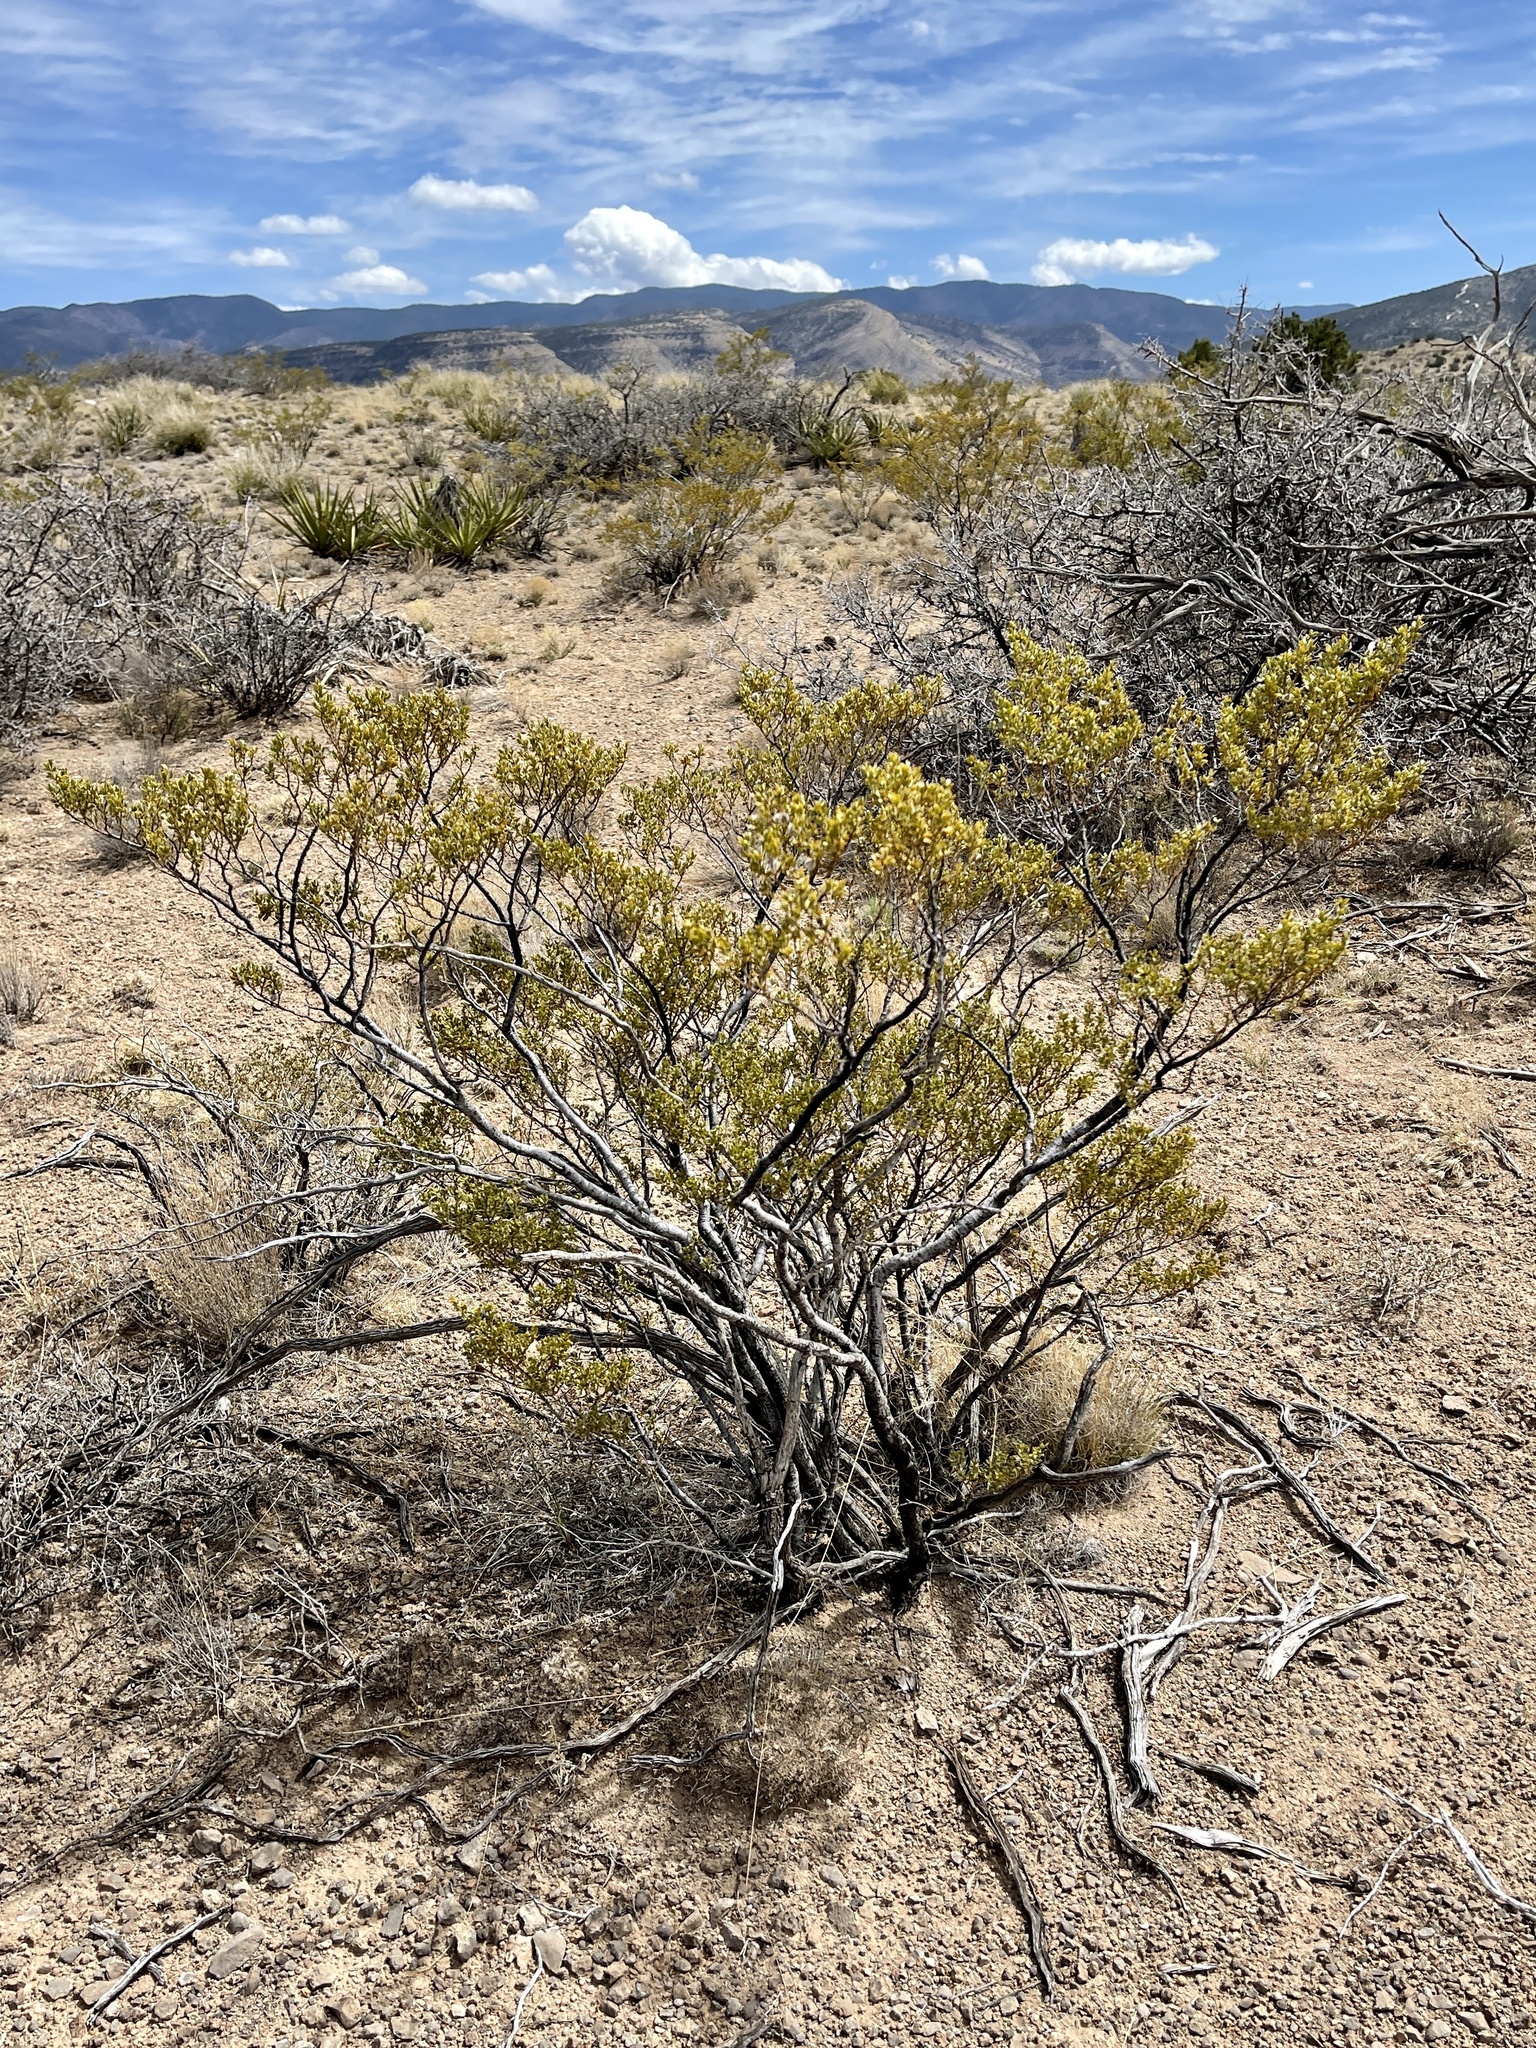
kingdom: Plantae
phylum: Tracheophyta
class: Magnoliopsida
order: Zygophyllales
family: Zygophyllaceae
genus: Larrea
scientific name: Larrea tridentata
